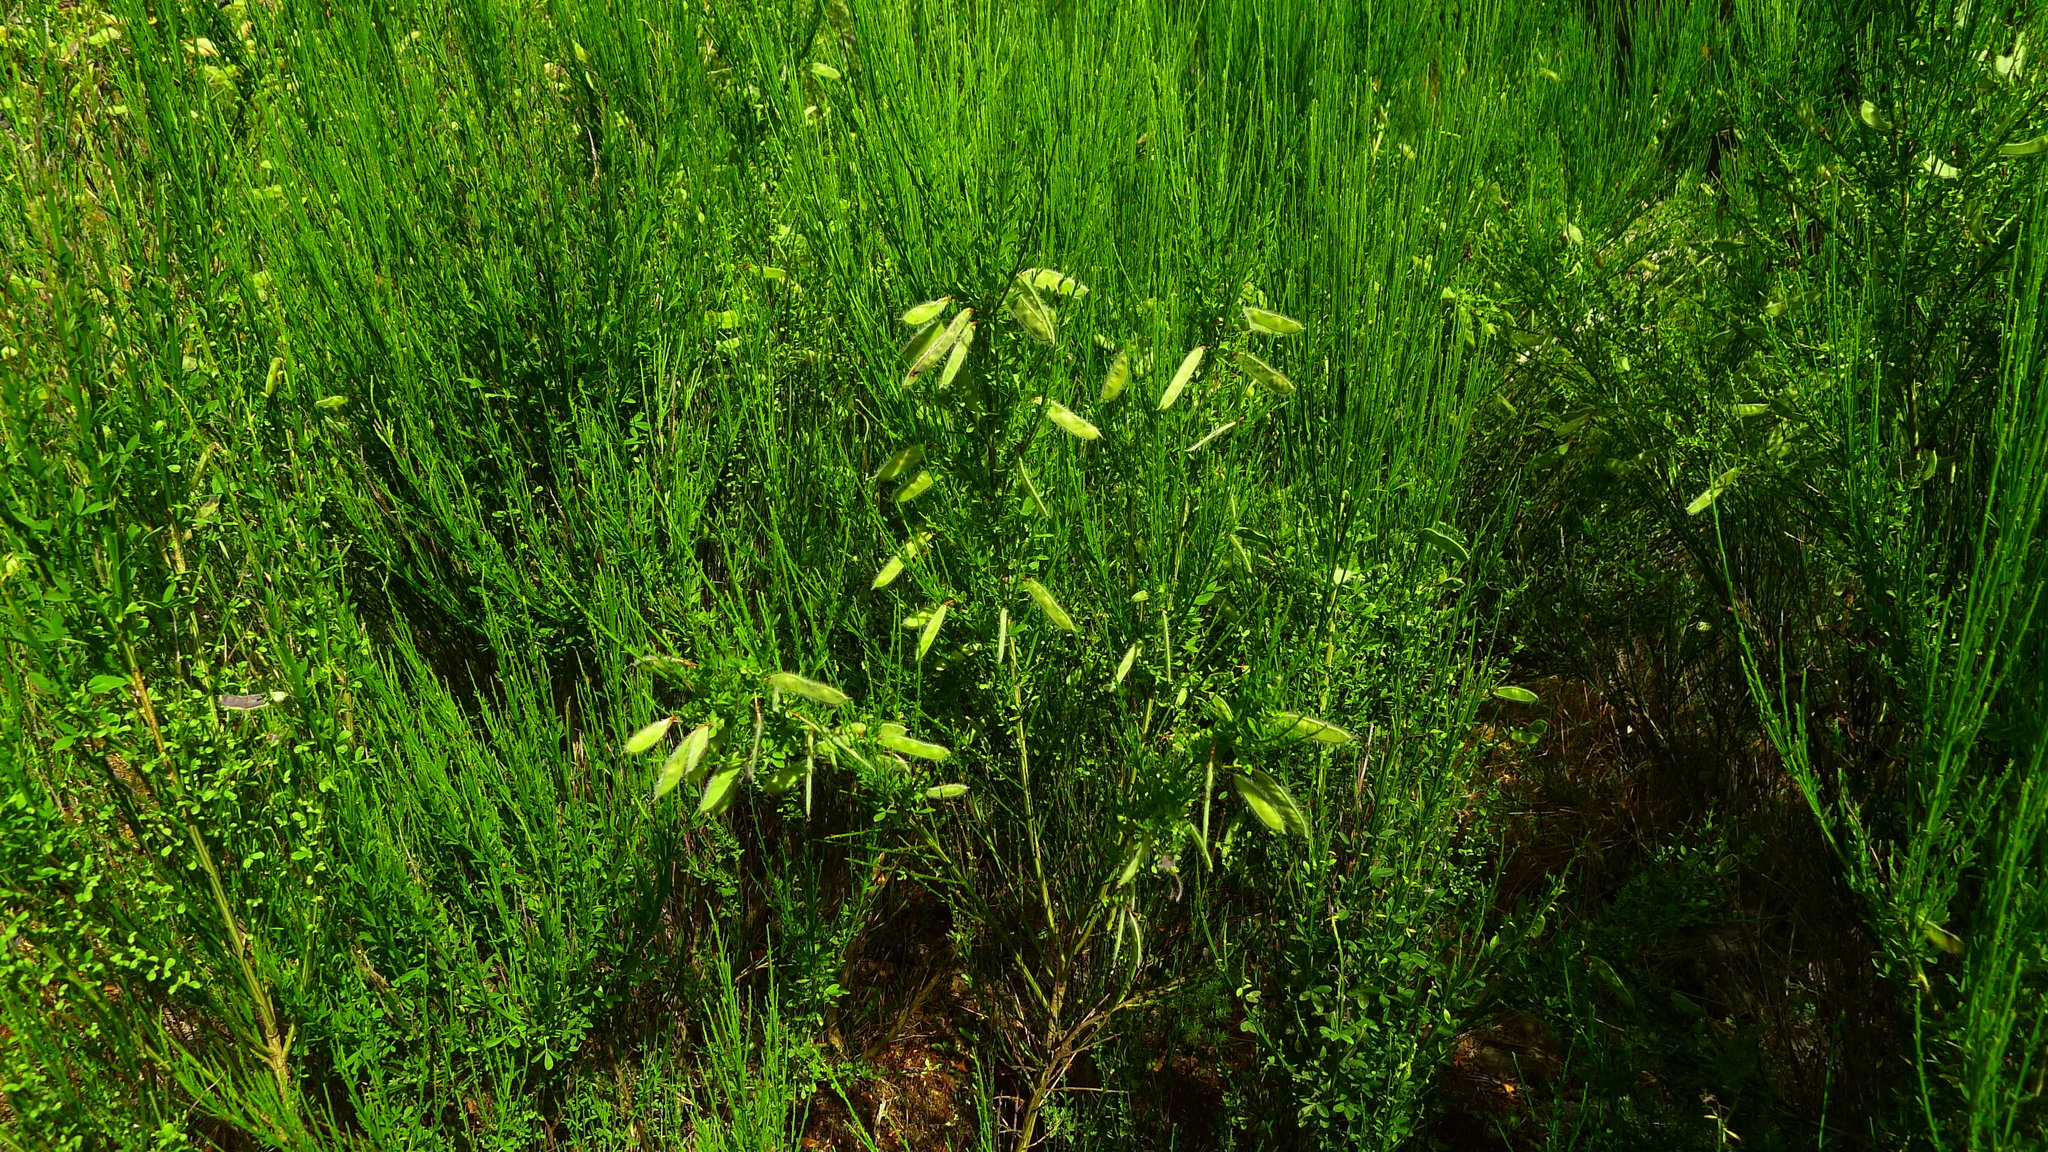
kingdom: Plantae
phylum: Tracheophyta
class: Magnoliopsida
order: Fabales
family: Fabaceae
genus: Cytisus
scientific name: Cytisus scoparius
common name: Scotch broom
